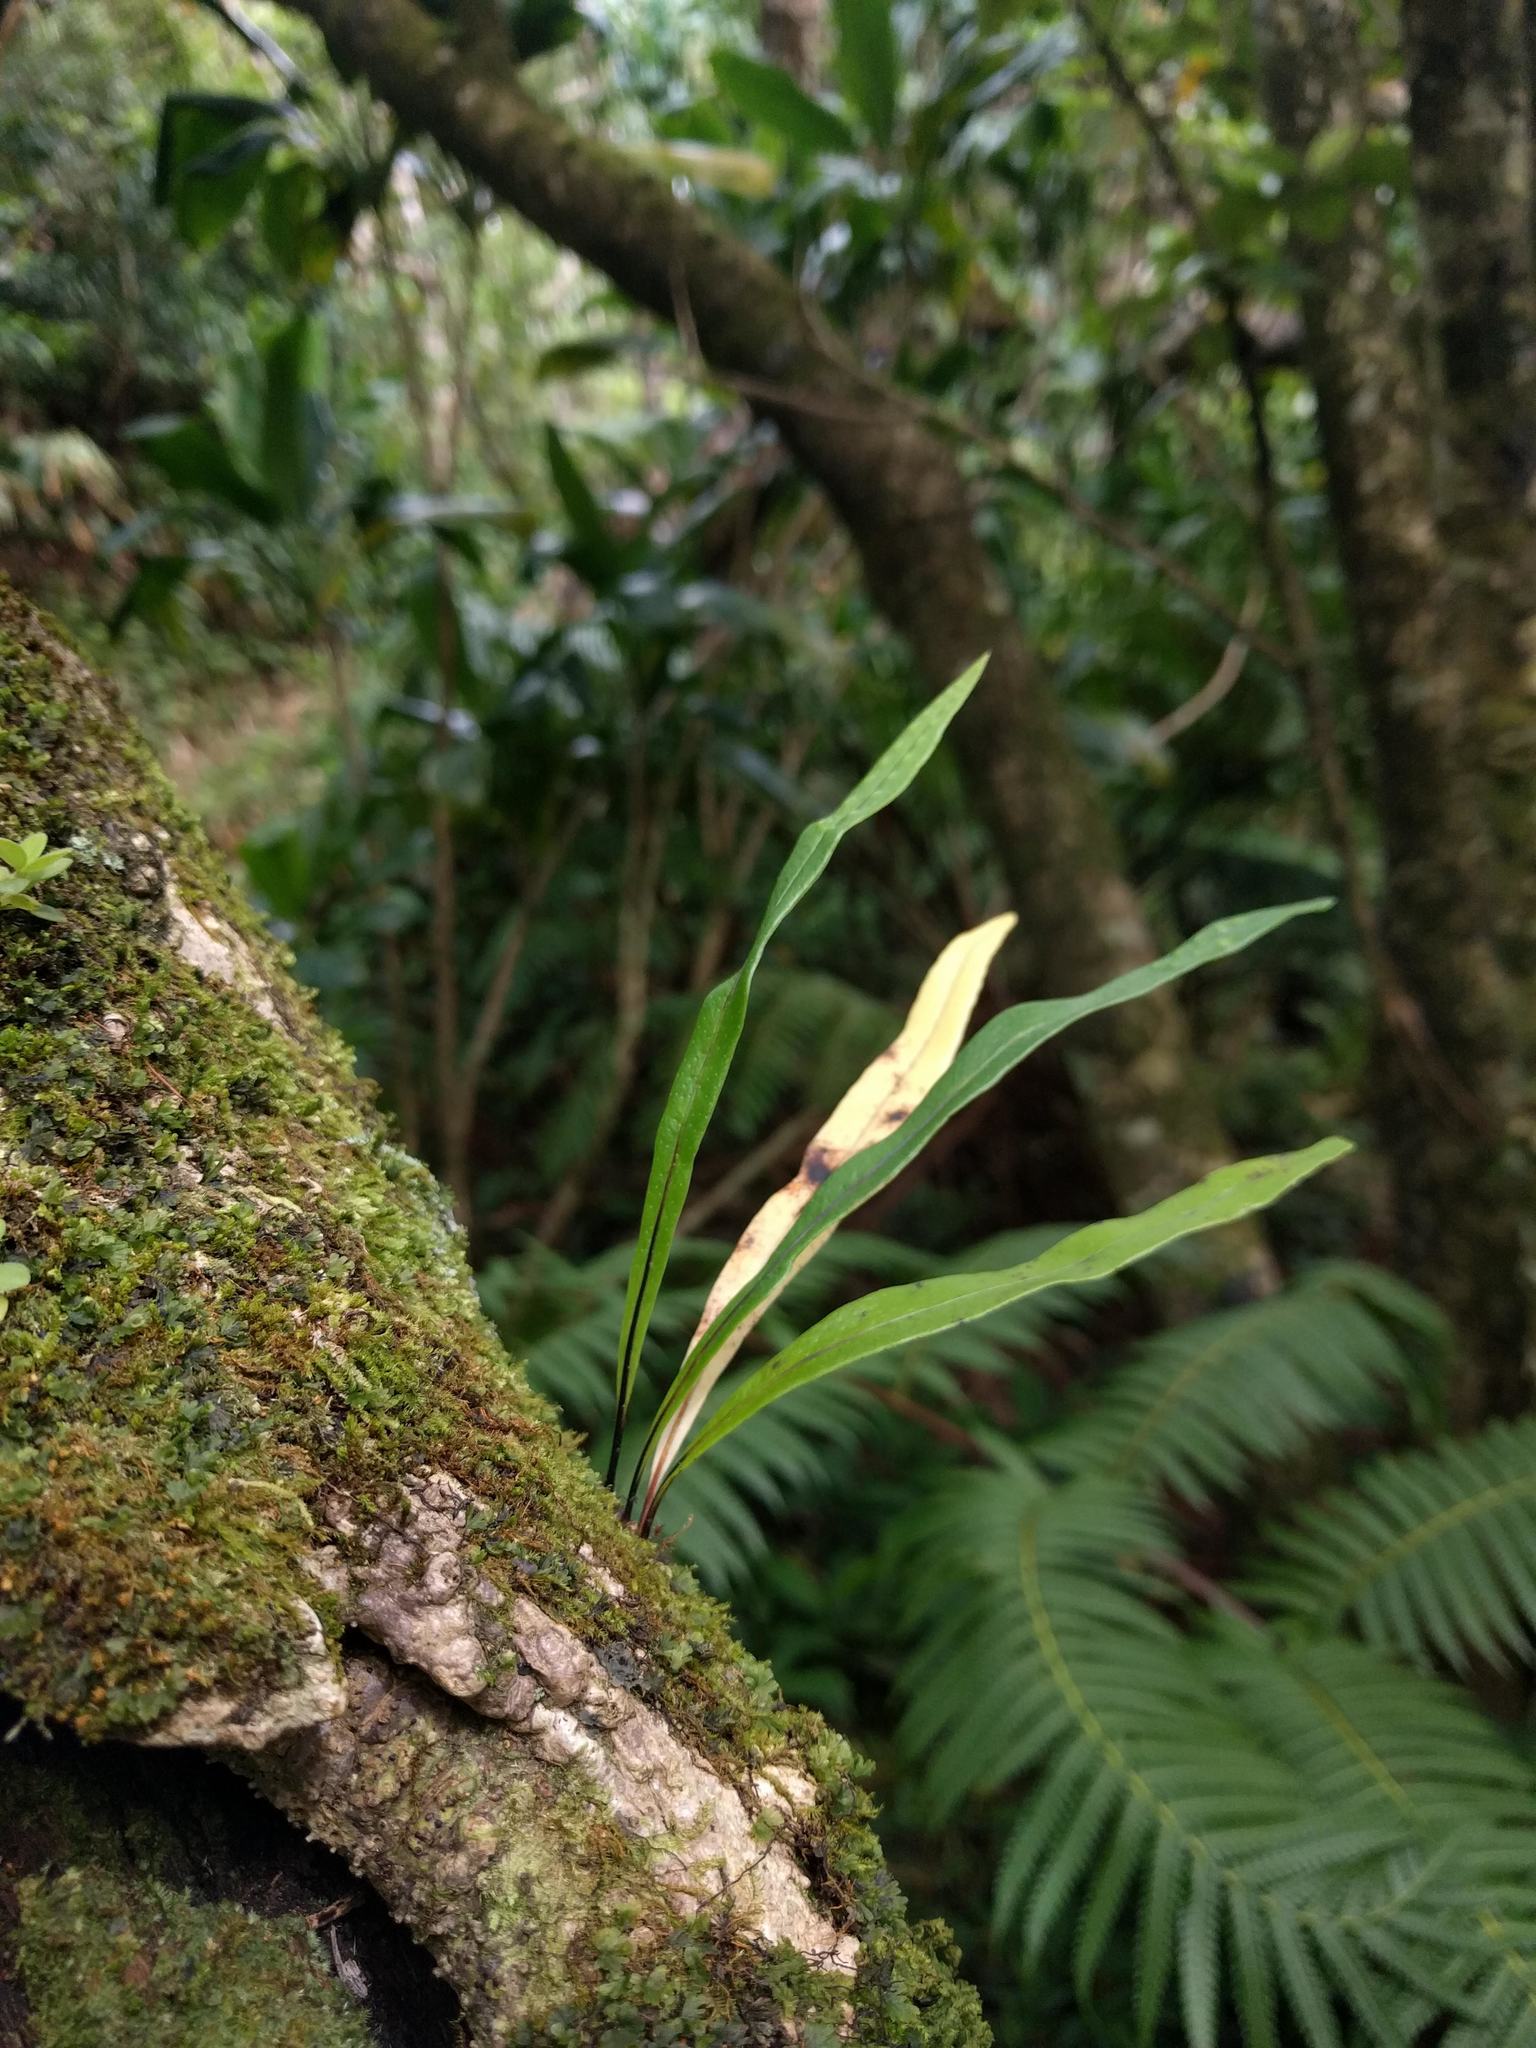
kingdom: Plantae
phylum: Tracheophyta
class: Polypodiopsida
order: Polypodiales
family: Polypodiaceae
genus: Lepisorus
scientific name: Lepisorus thunbergianus
